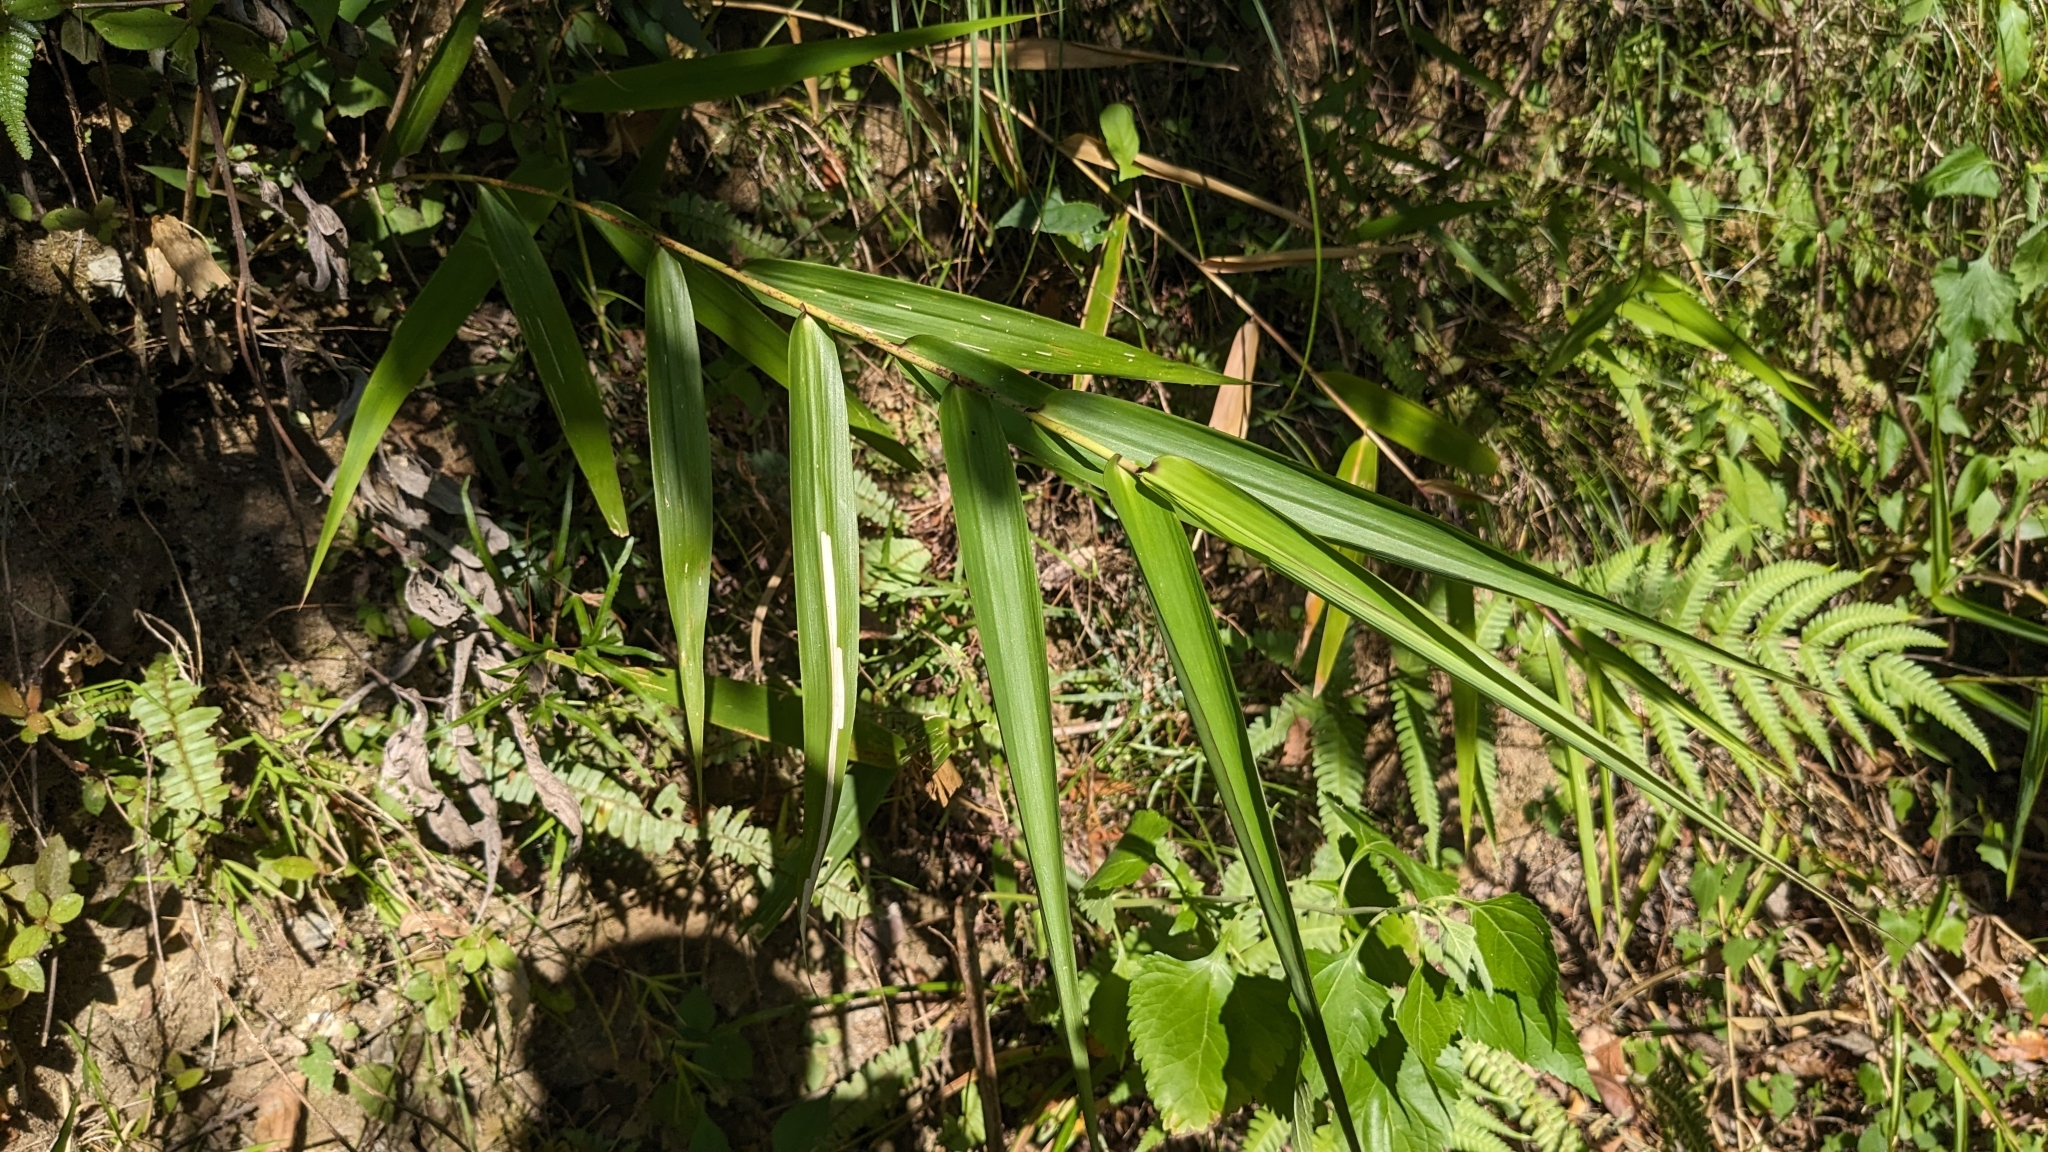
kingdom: Plantae
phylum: Tracheophyta
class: Liliopsida
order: Poales
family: Poaceae
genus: Thysanolaena
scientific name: Thysanolaena latifolia
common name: Tiger grass
